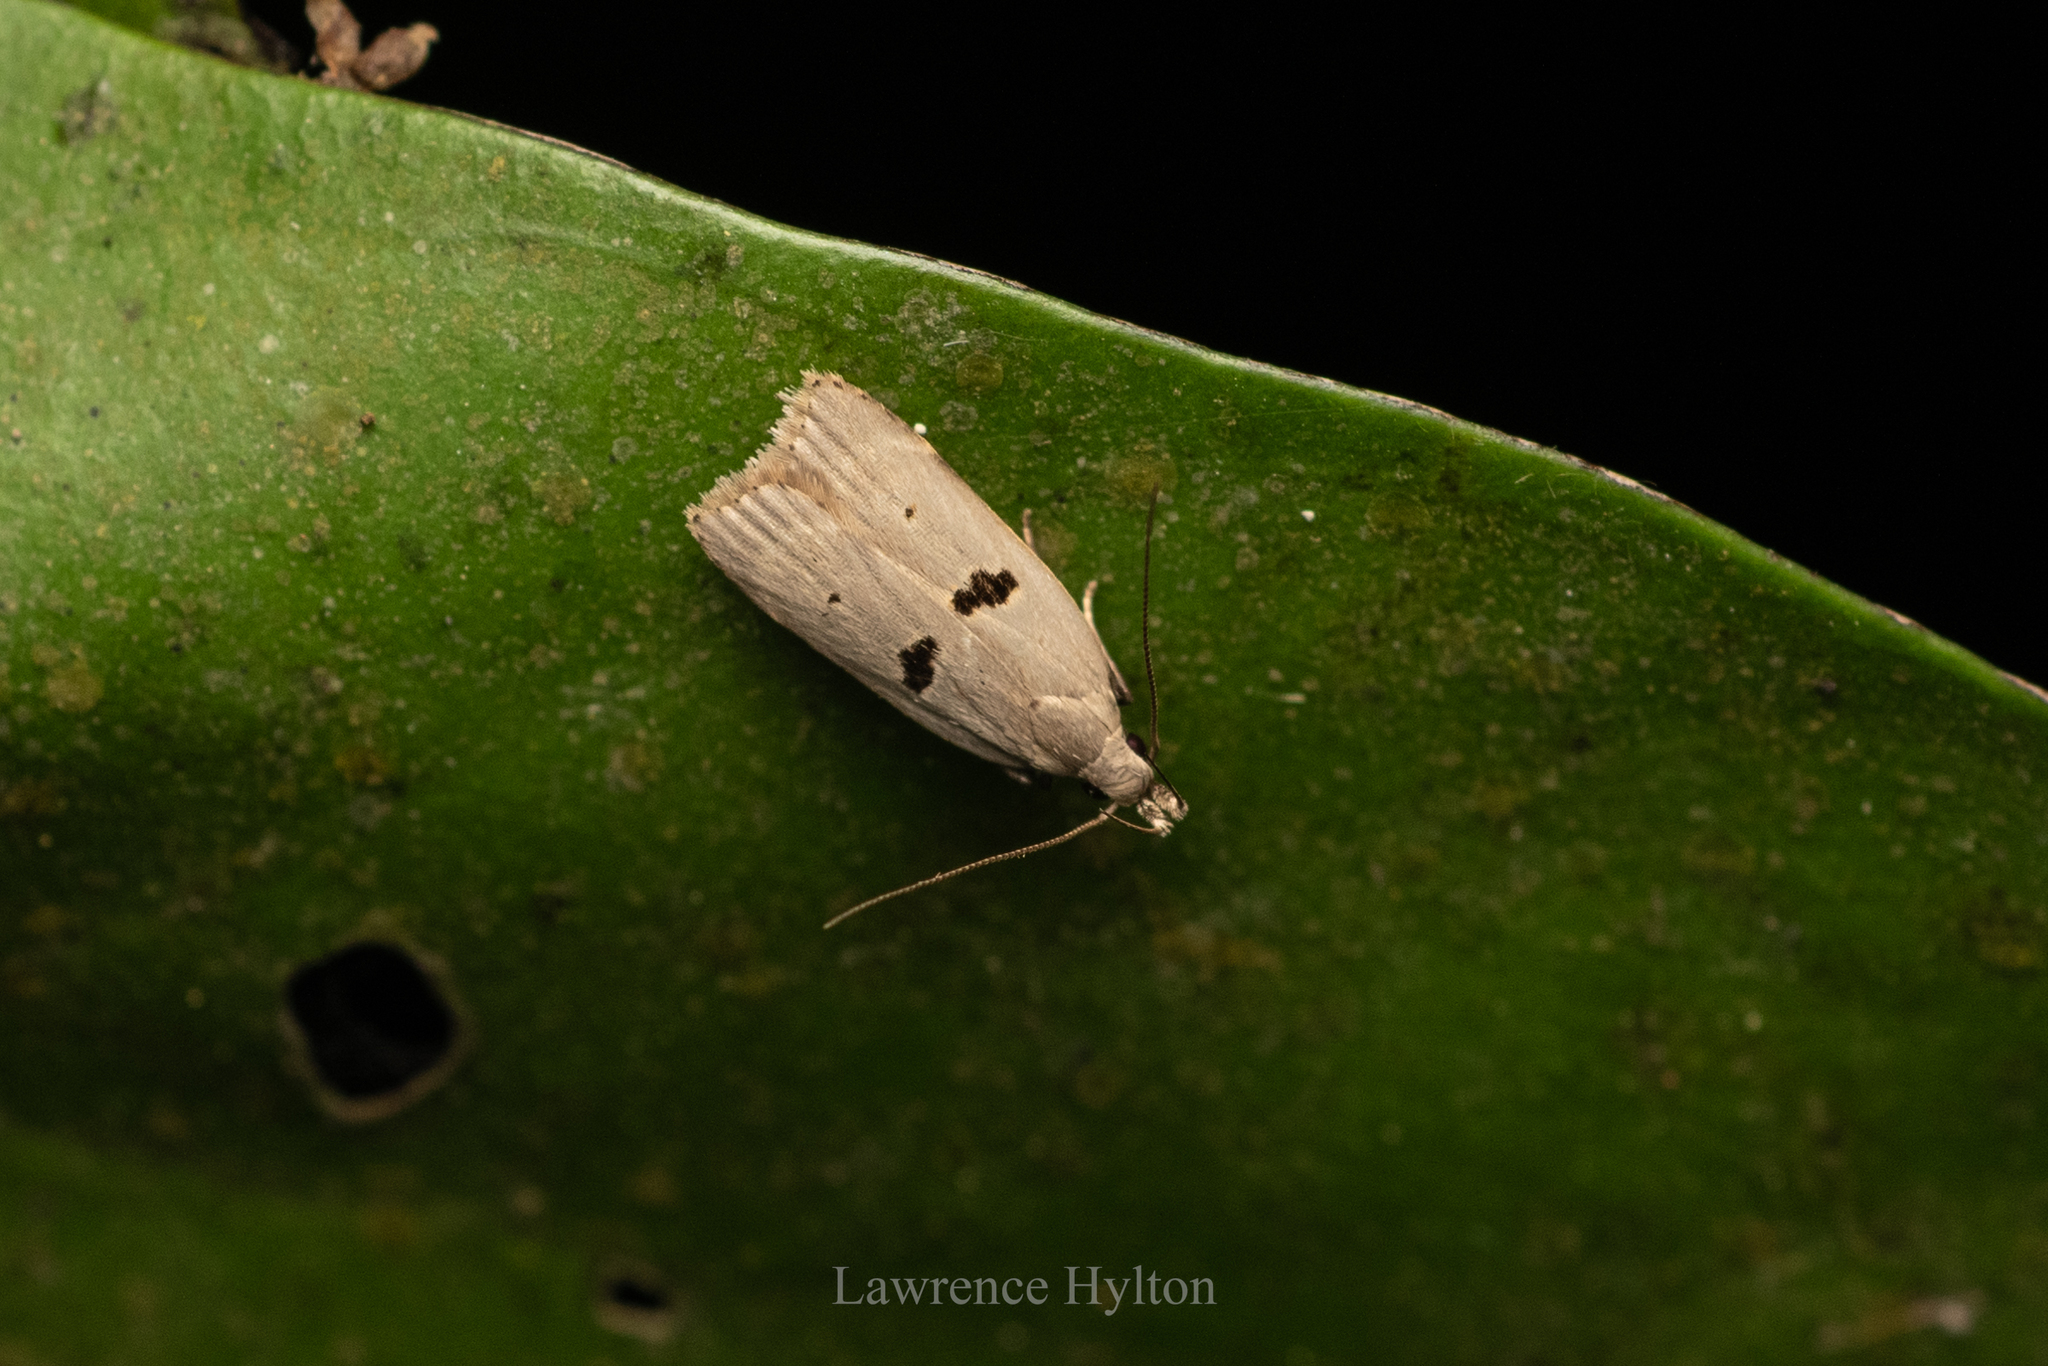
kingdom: Animalia
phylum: Arthropoda
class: Insecta
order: Lepidoptera
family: Gelechiidae
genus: Dichomeris
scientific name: Dichomeris loxospila
